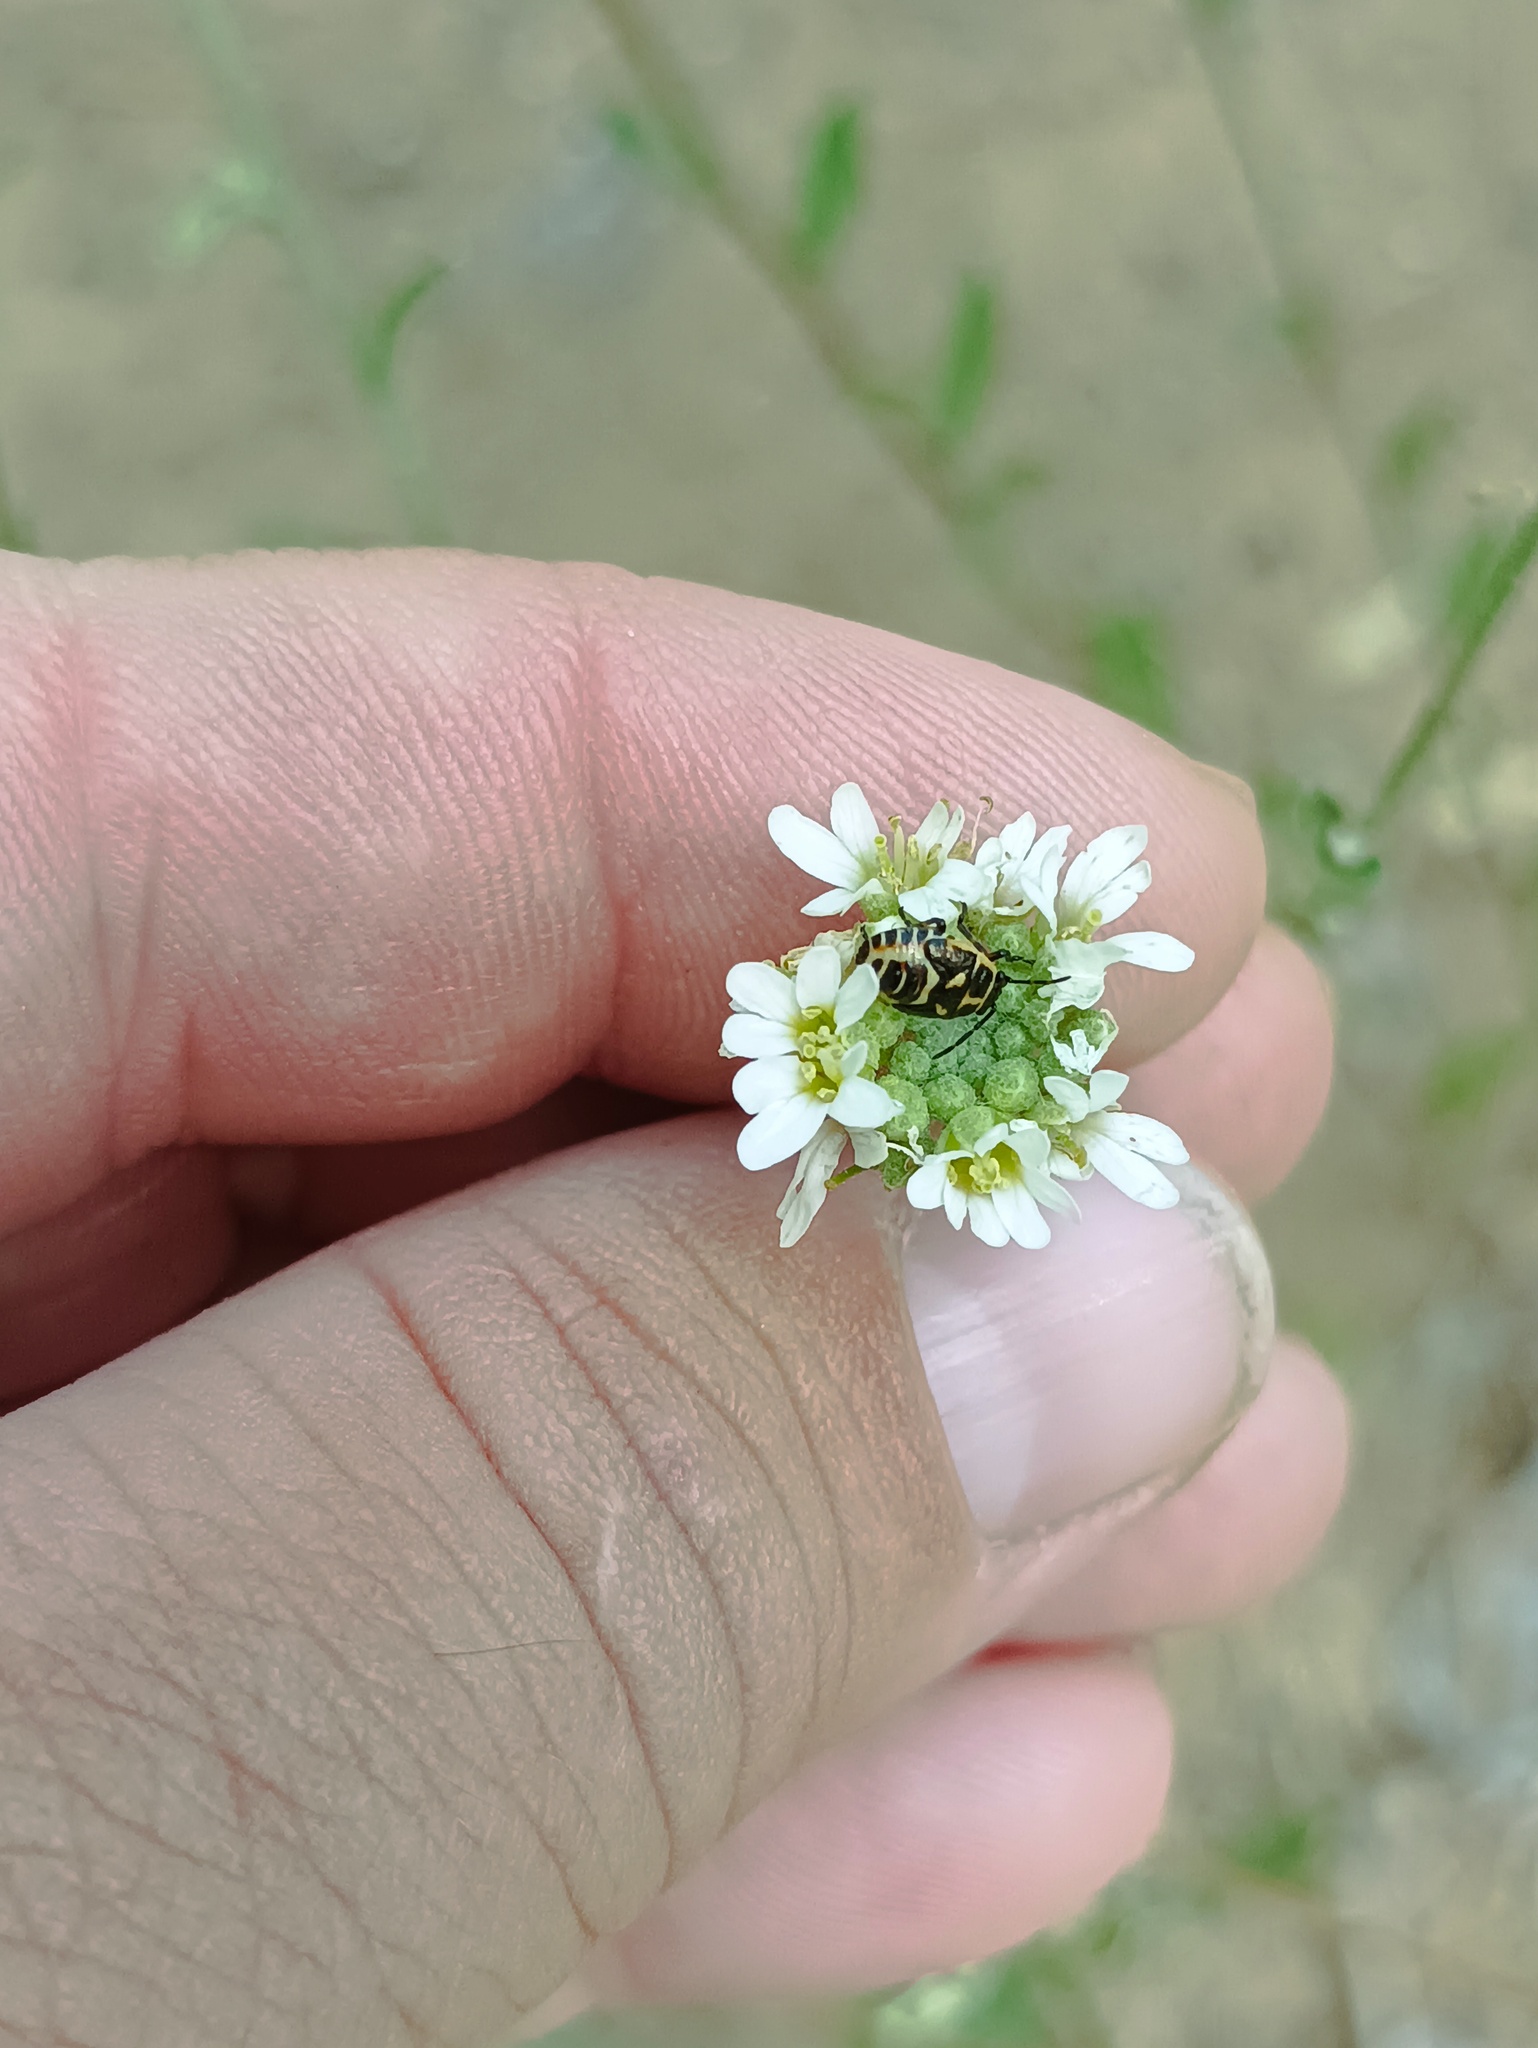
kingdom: Animalia
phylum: Arthropoda
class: Insecta
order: Hemiptera
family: Pentatomidae
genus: Eurydema
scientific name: Eurydema oleracea
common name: Cabbage bug
